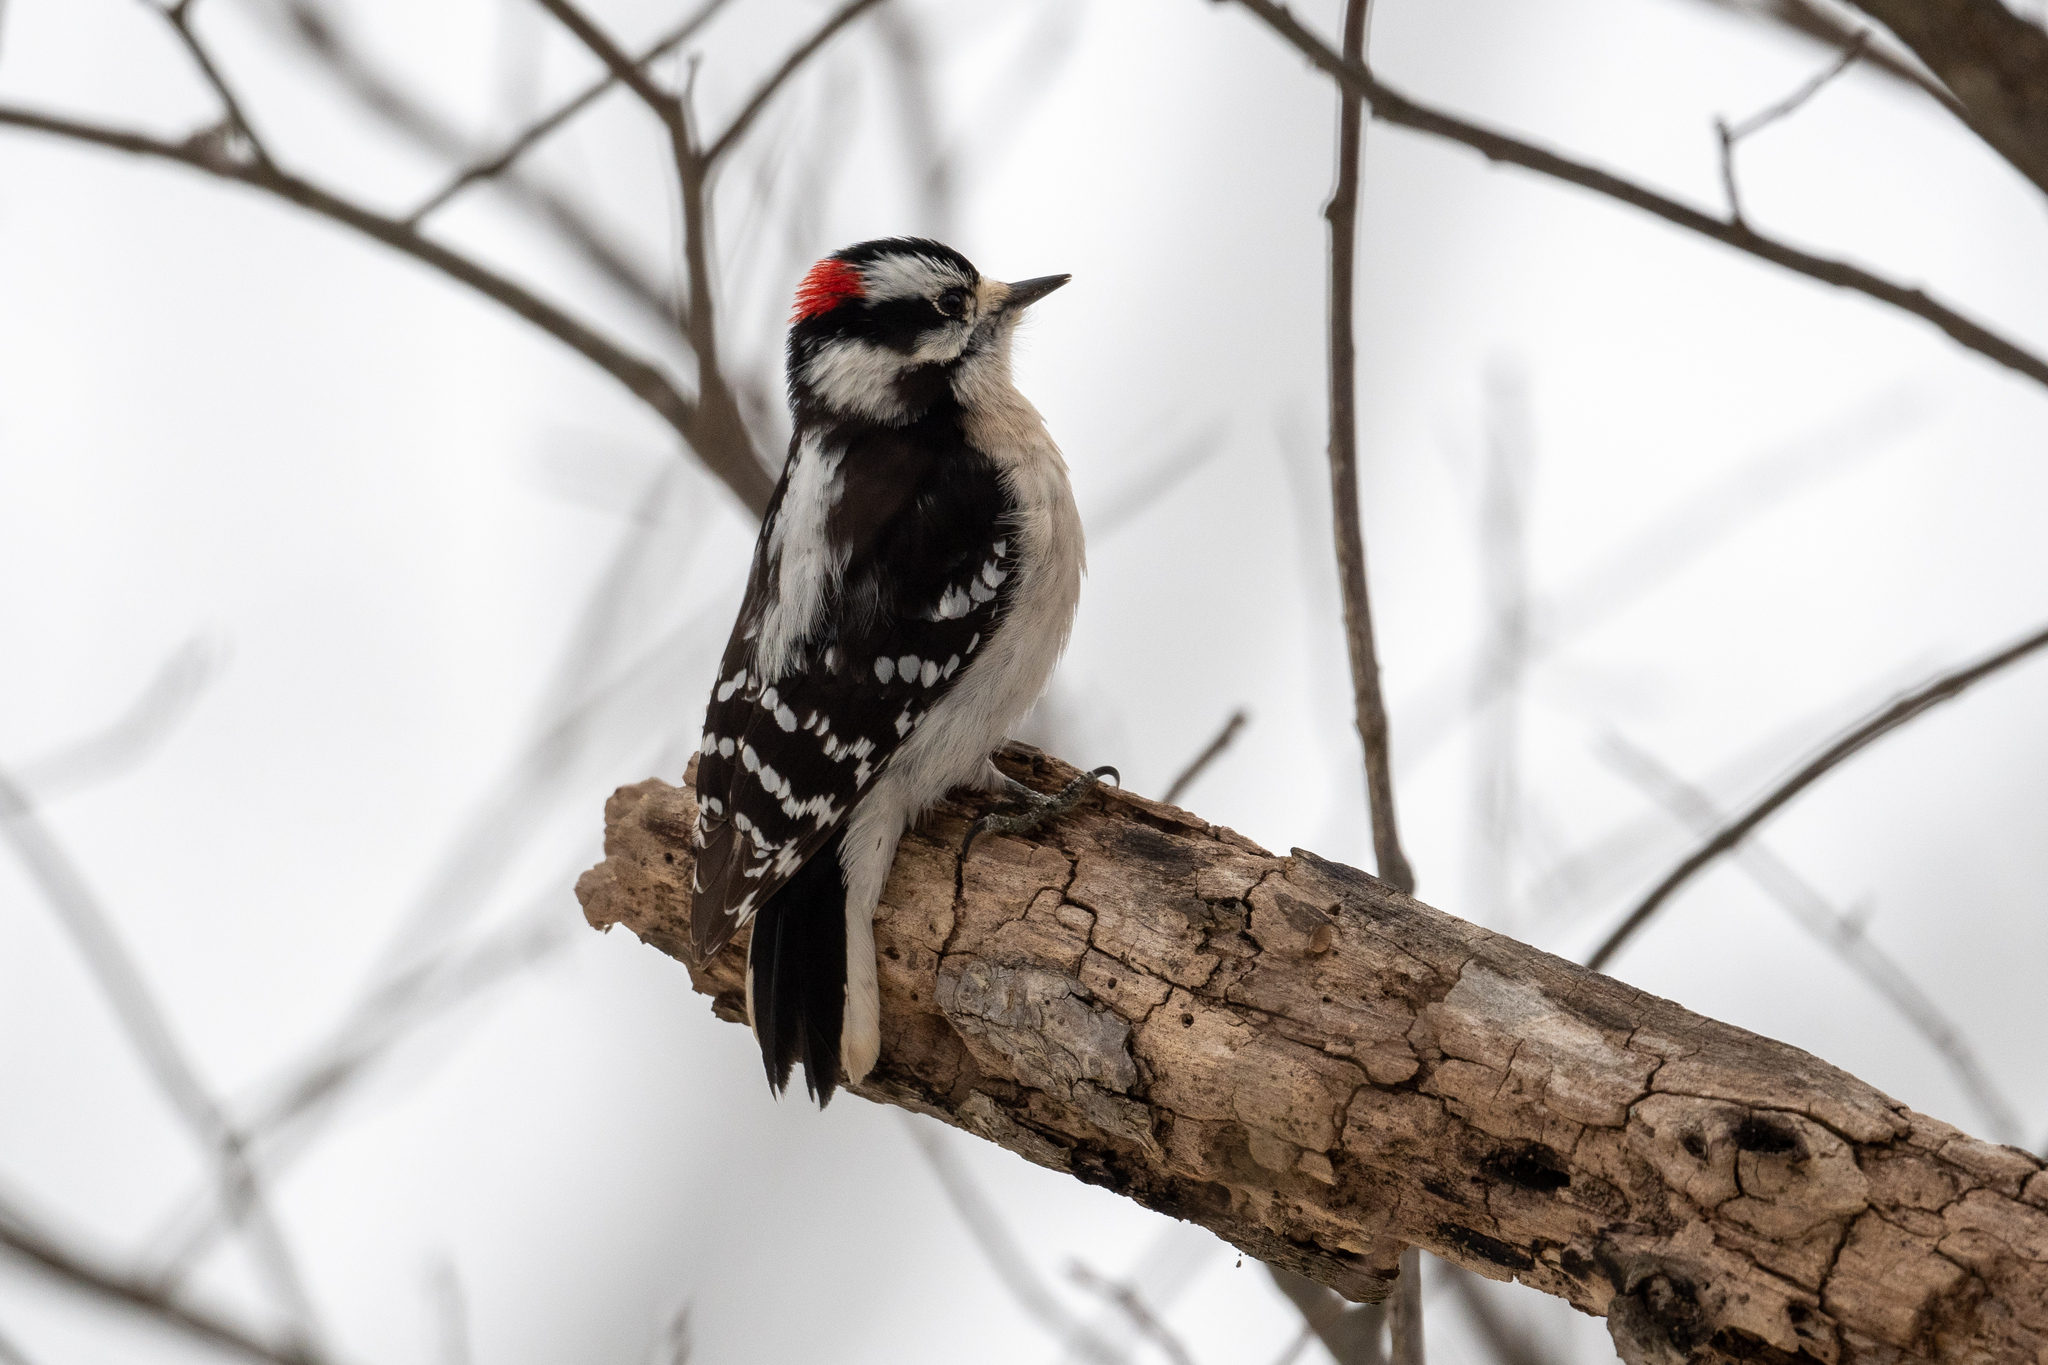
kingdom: Animalia
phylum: Chordata
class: Aves
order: Piciformes
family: Picidae
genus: Dryobates
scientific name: Dryobates pubescens
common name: Downy woodpecker
